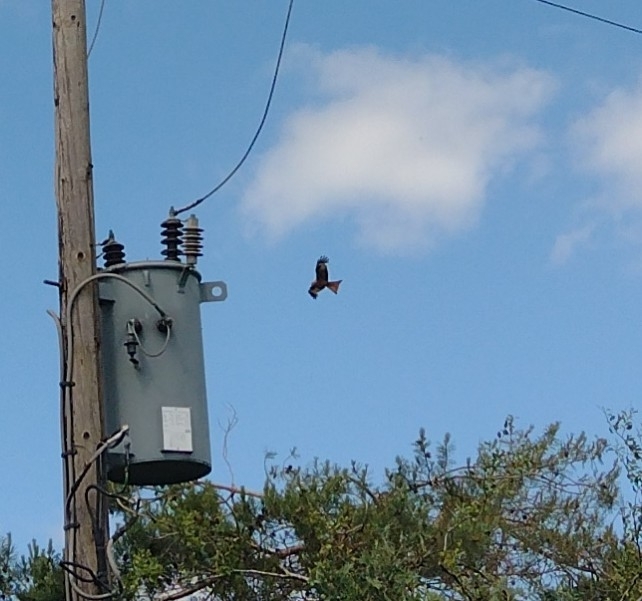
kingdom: Animalia
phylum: Chordata
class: Aves
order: Accipitriformes
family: Accipitridae
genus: Milvus
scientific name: Milvus milvus
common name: Red kite
